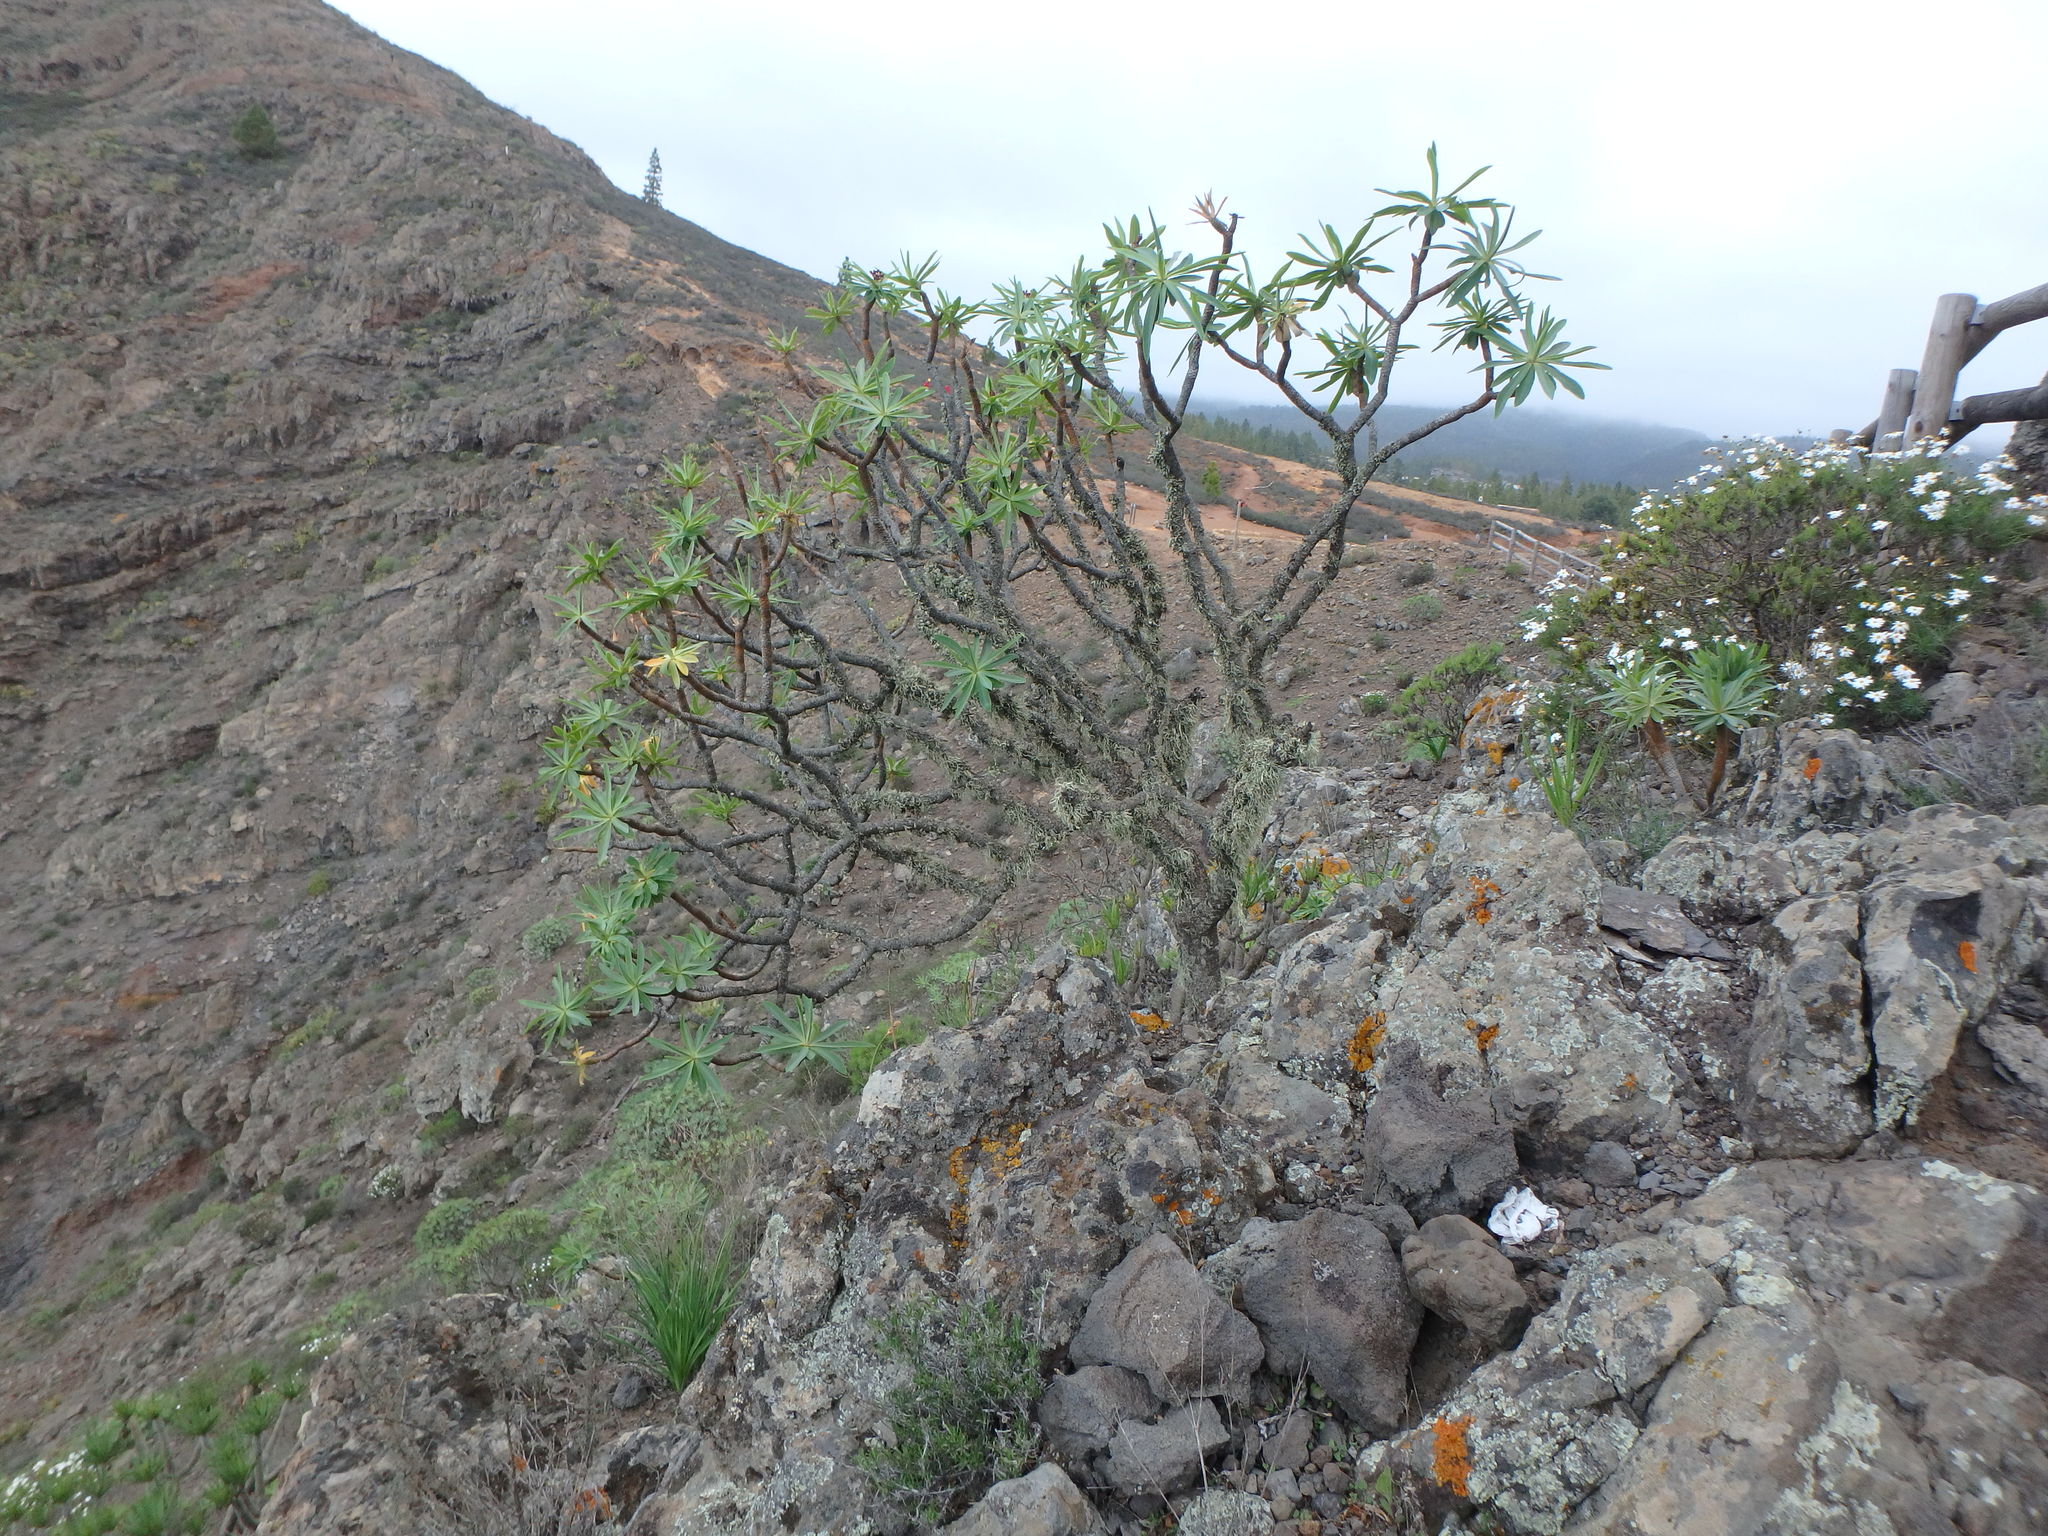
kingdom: Plantae
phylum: Tracheophyta
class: Magnoliopsida
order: Malpighiales
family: Euphorbiaceae
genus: Euphorbia
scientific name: Euphorbia atropurpurea
